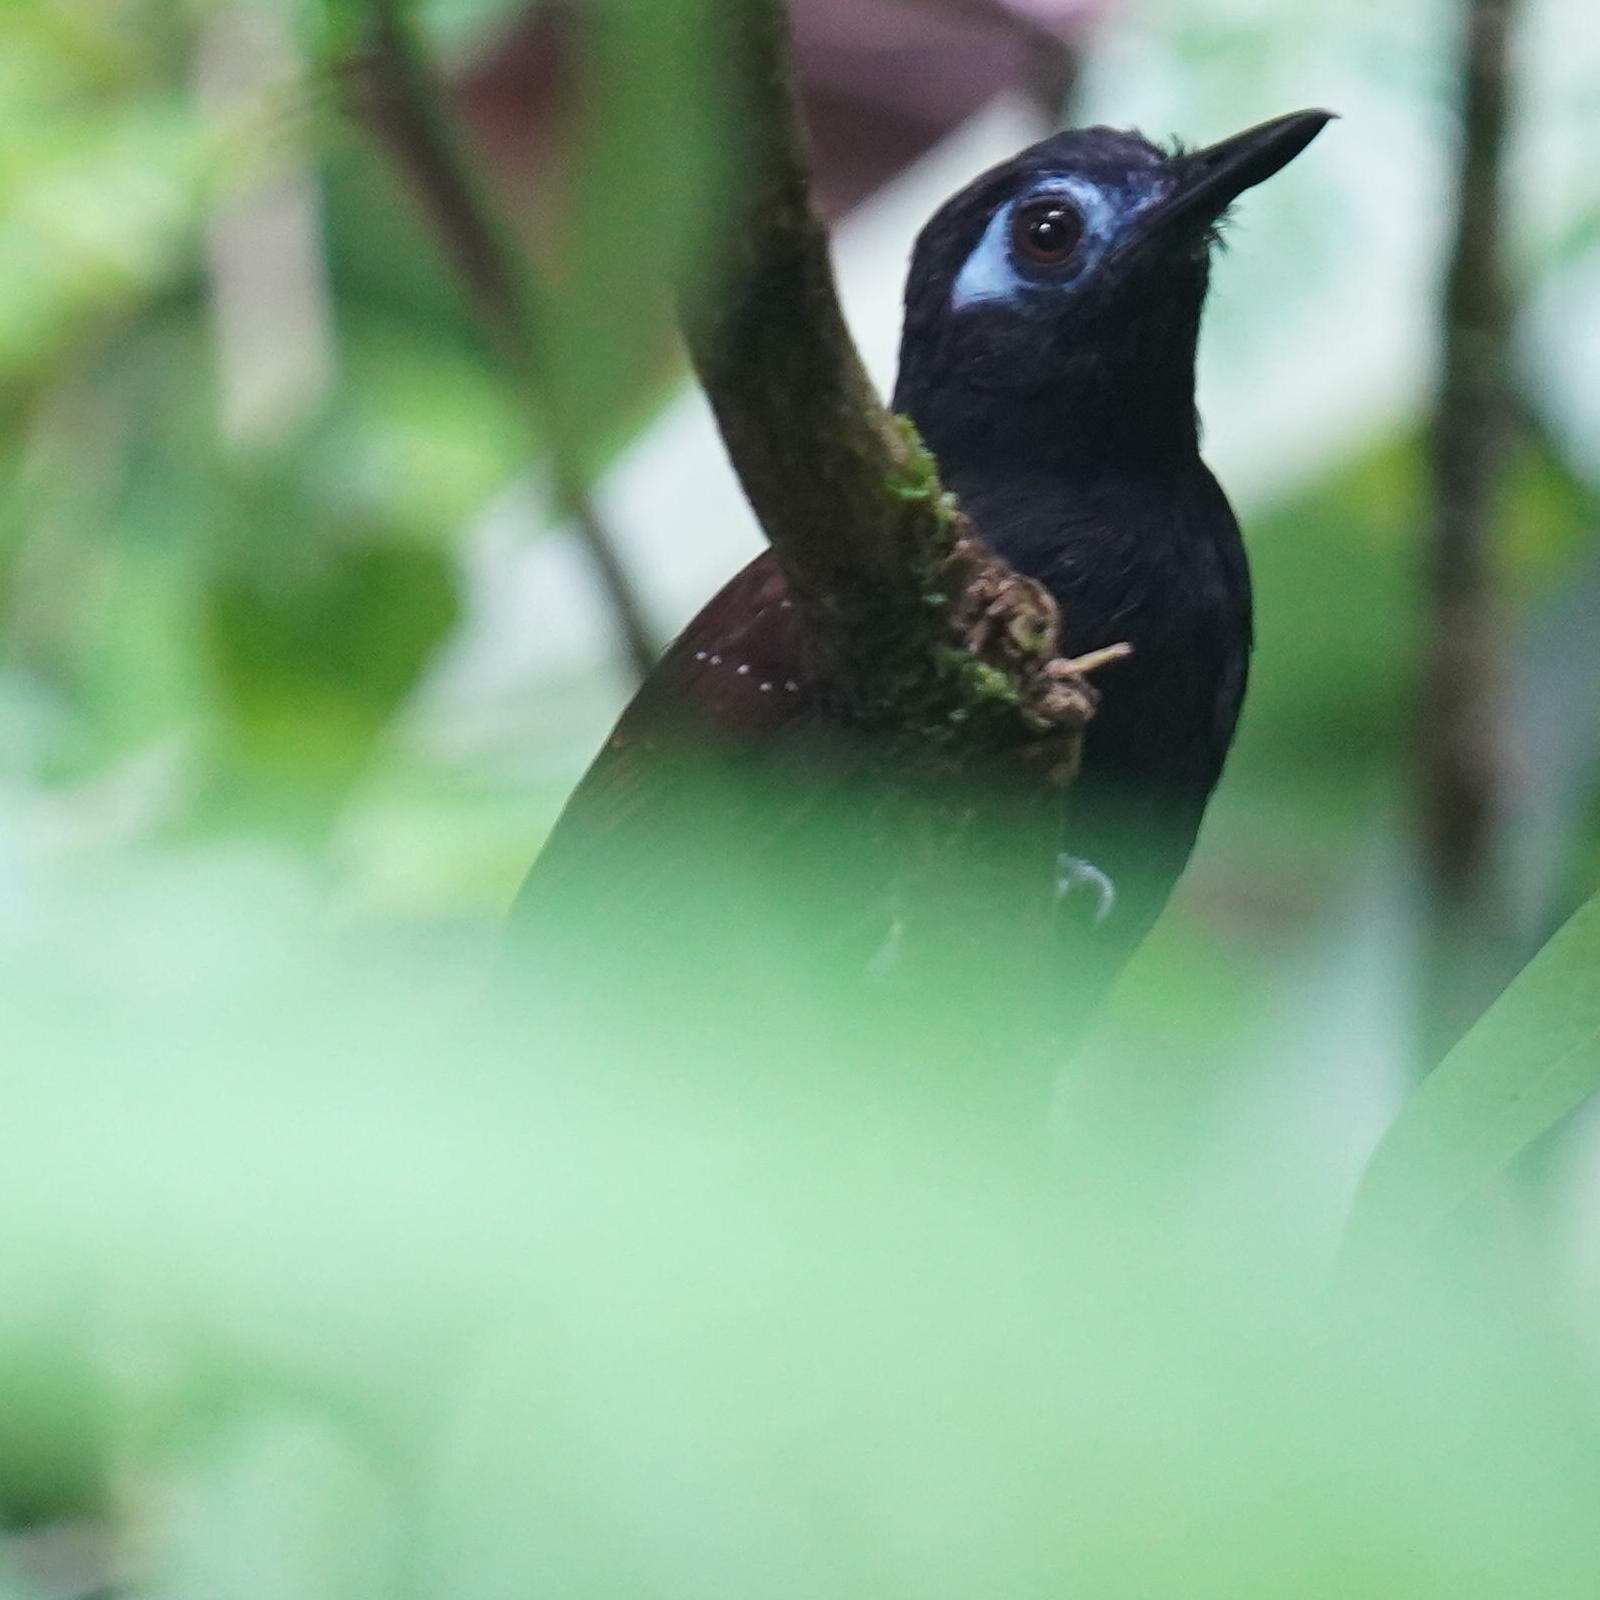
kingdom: Animalia
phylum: Chordata
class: Aves
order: Passeriformes
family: Thamnophilidae
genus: Myrmeciza
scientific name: Myrmeciza exsul
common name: Chestnut-backed antbird
